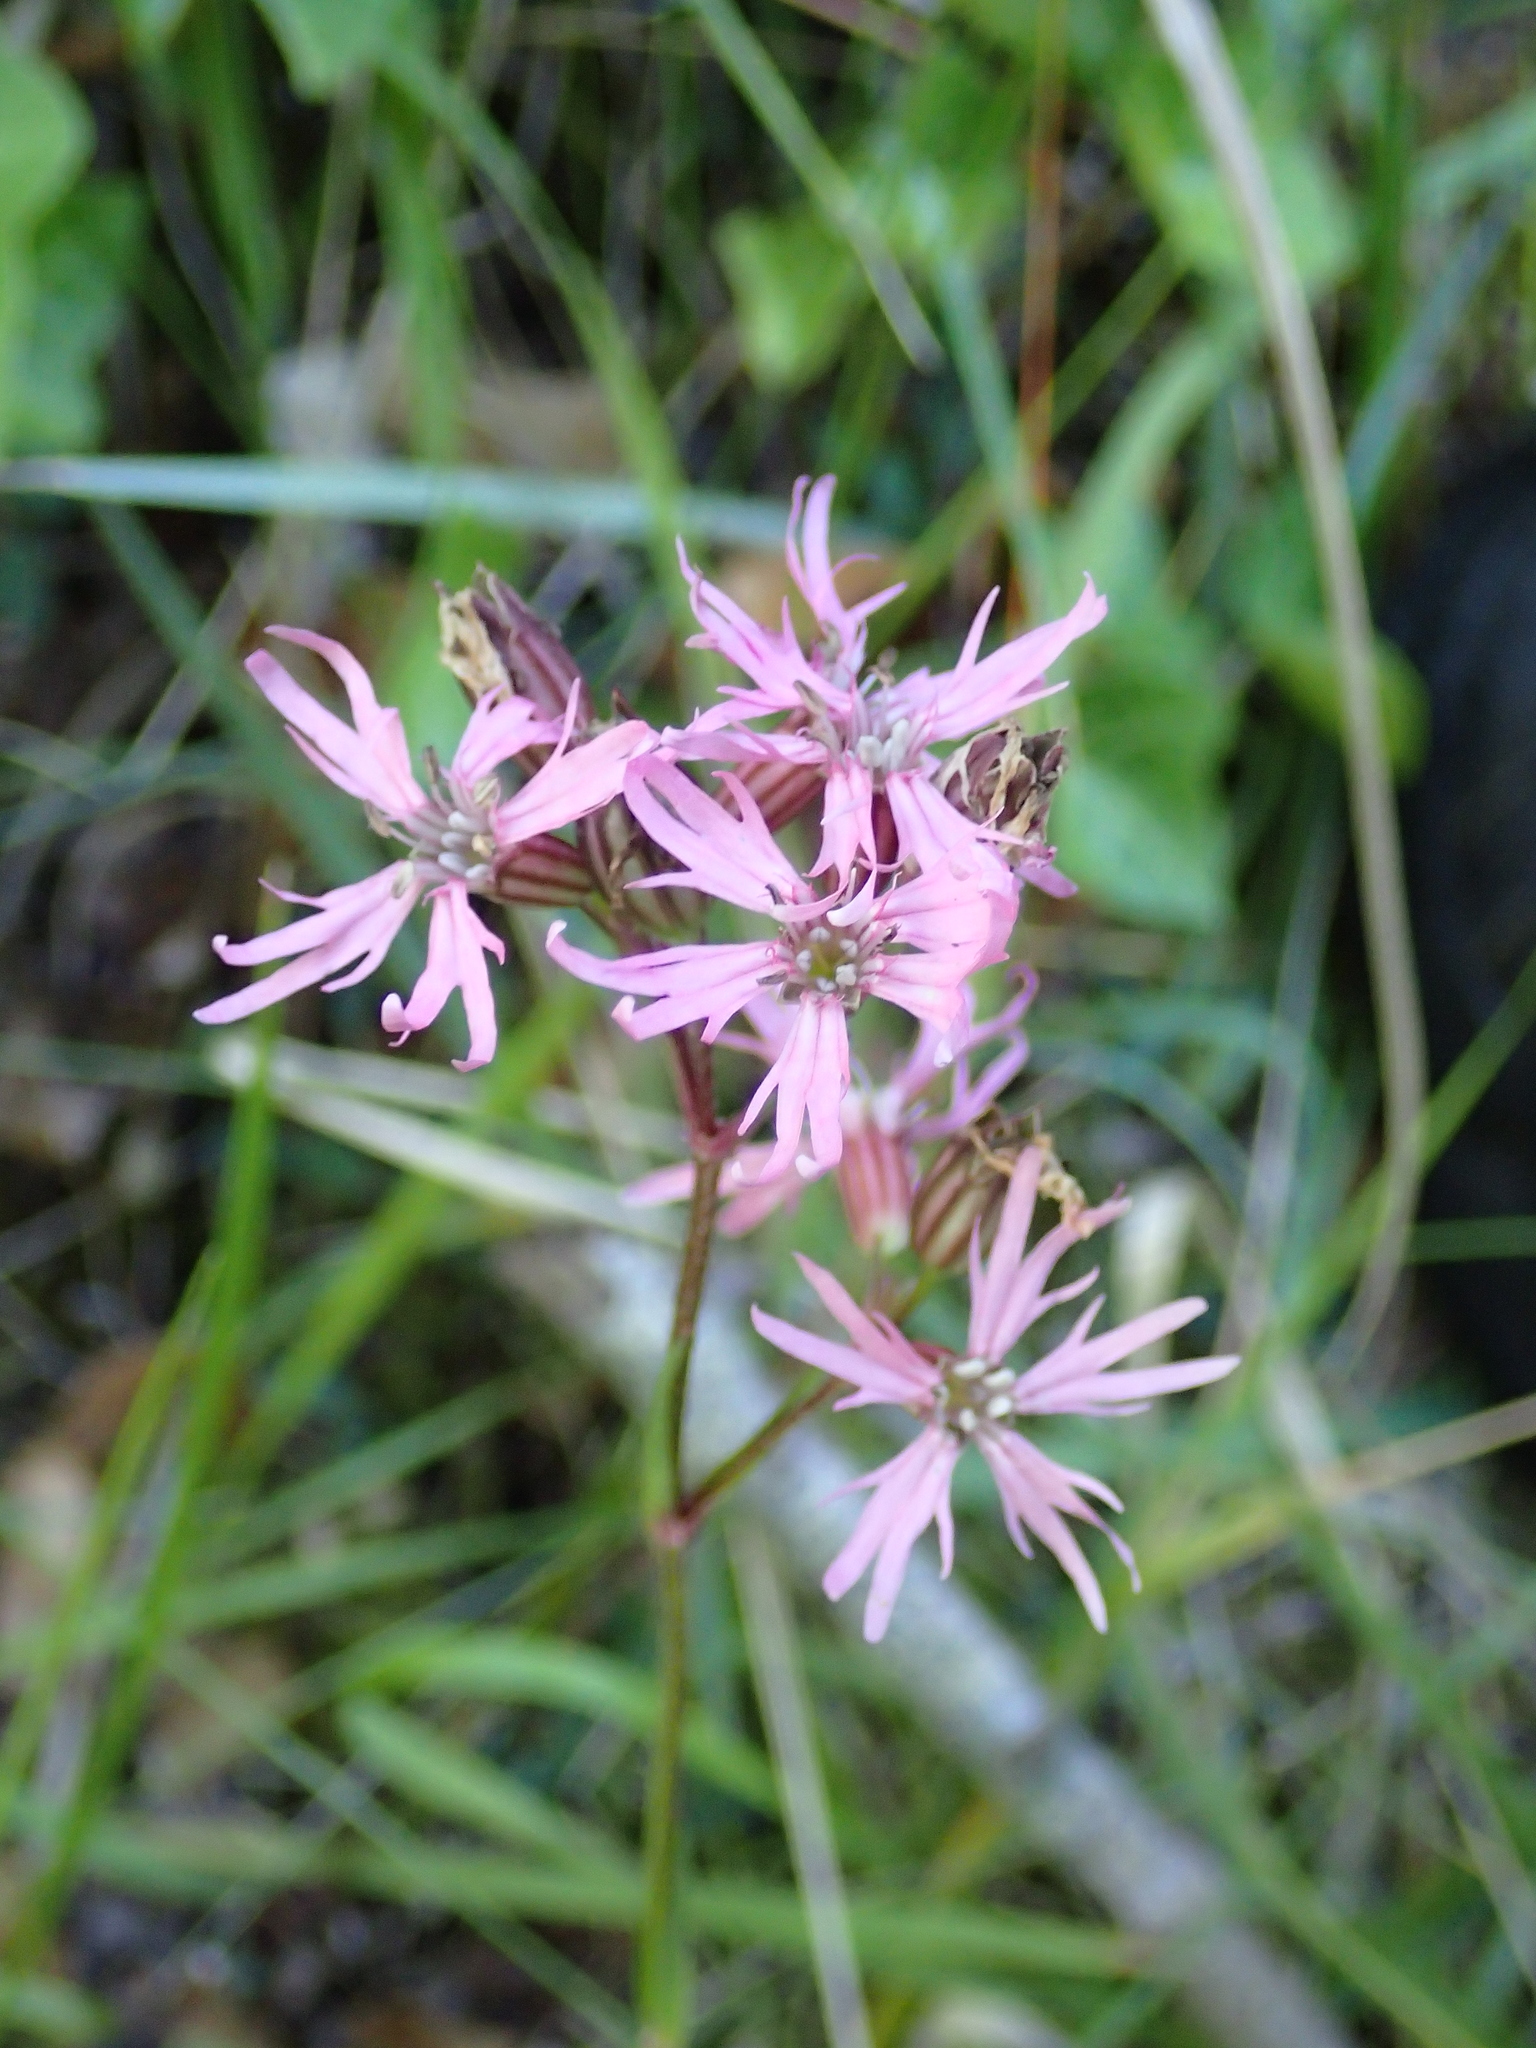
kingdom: Plantae
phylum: Tracheophyta
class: Magnoliopsida
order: Caryophyllales
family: Caryophyllaceae
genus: Silene
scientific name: Silene flos-cuculi
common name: Ragged-robin
